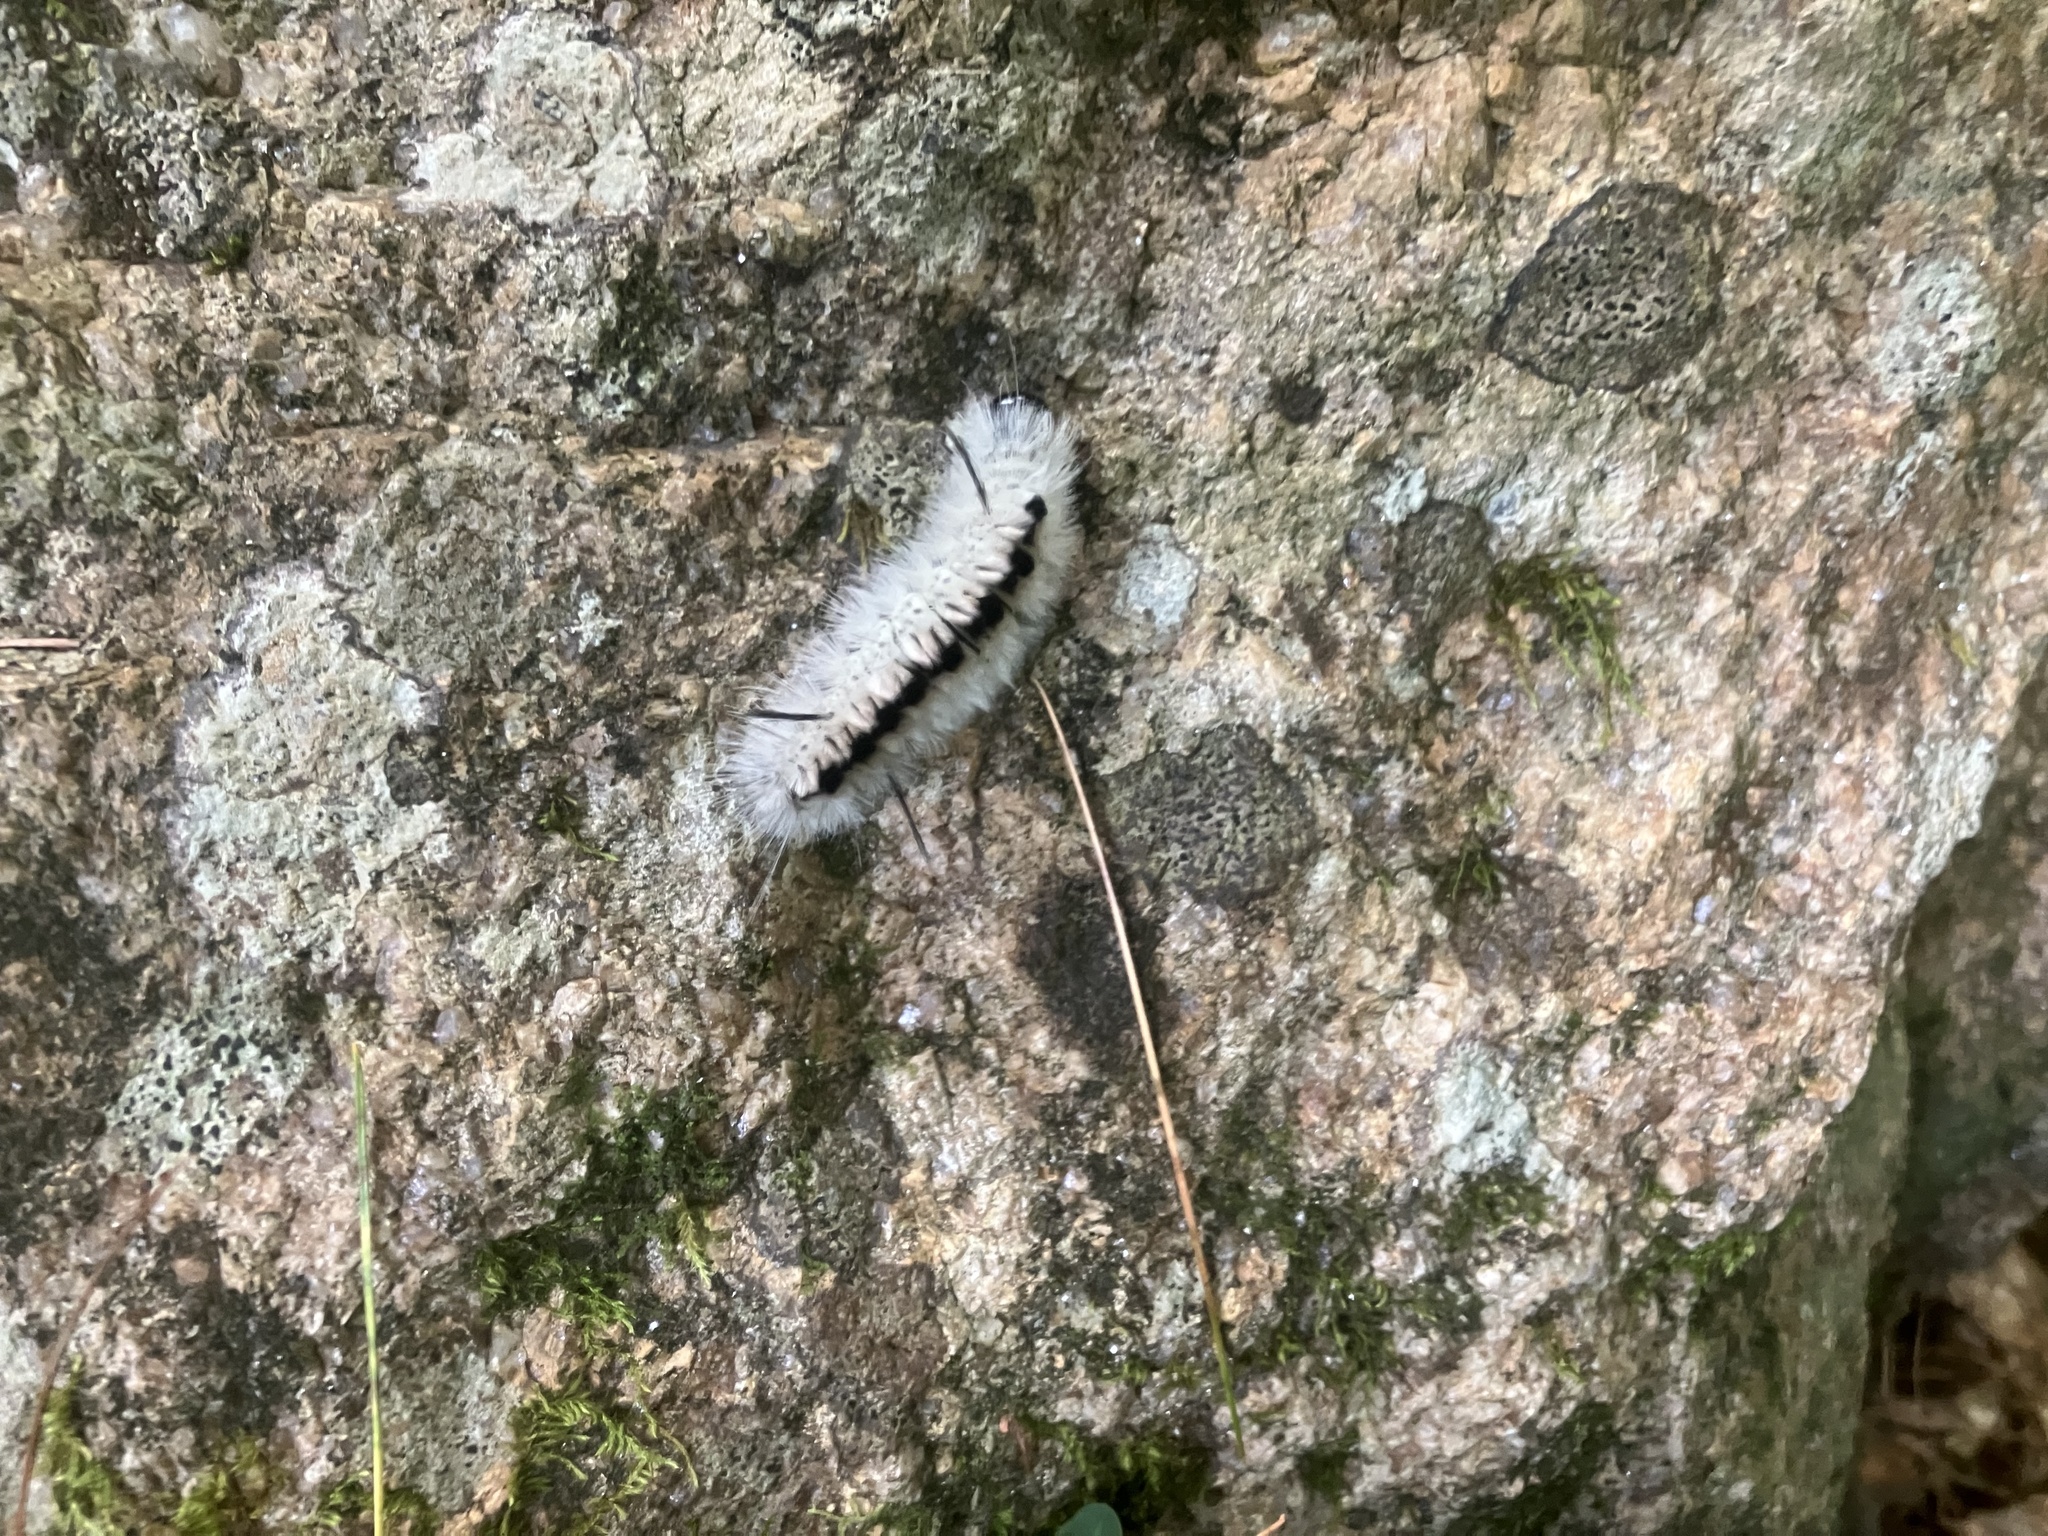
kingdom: Animalia
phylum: Arthropoda
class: Insecta
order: Lepidoptera
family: Erebidae
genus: Lophocampa
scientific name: Lophocampa caryae
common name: Hickory tussock moth
